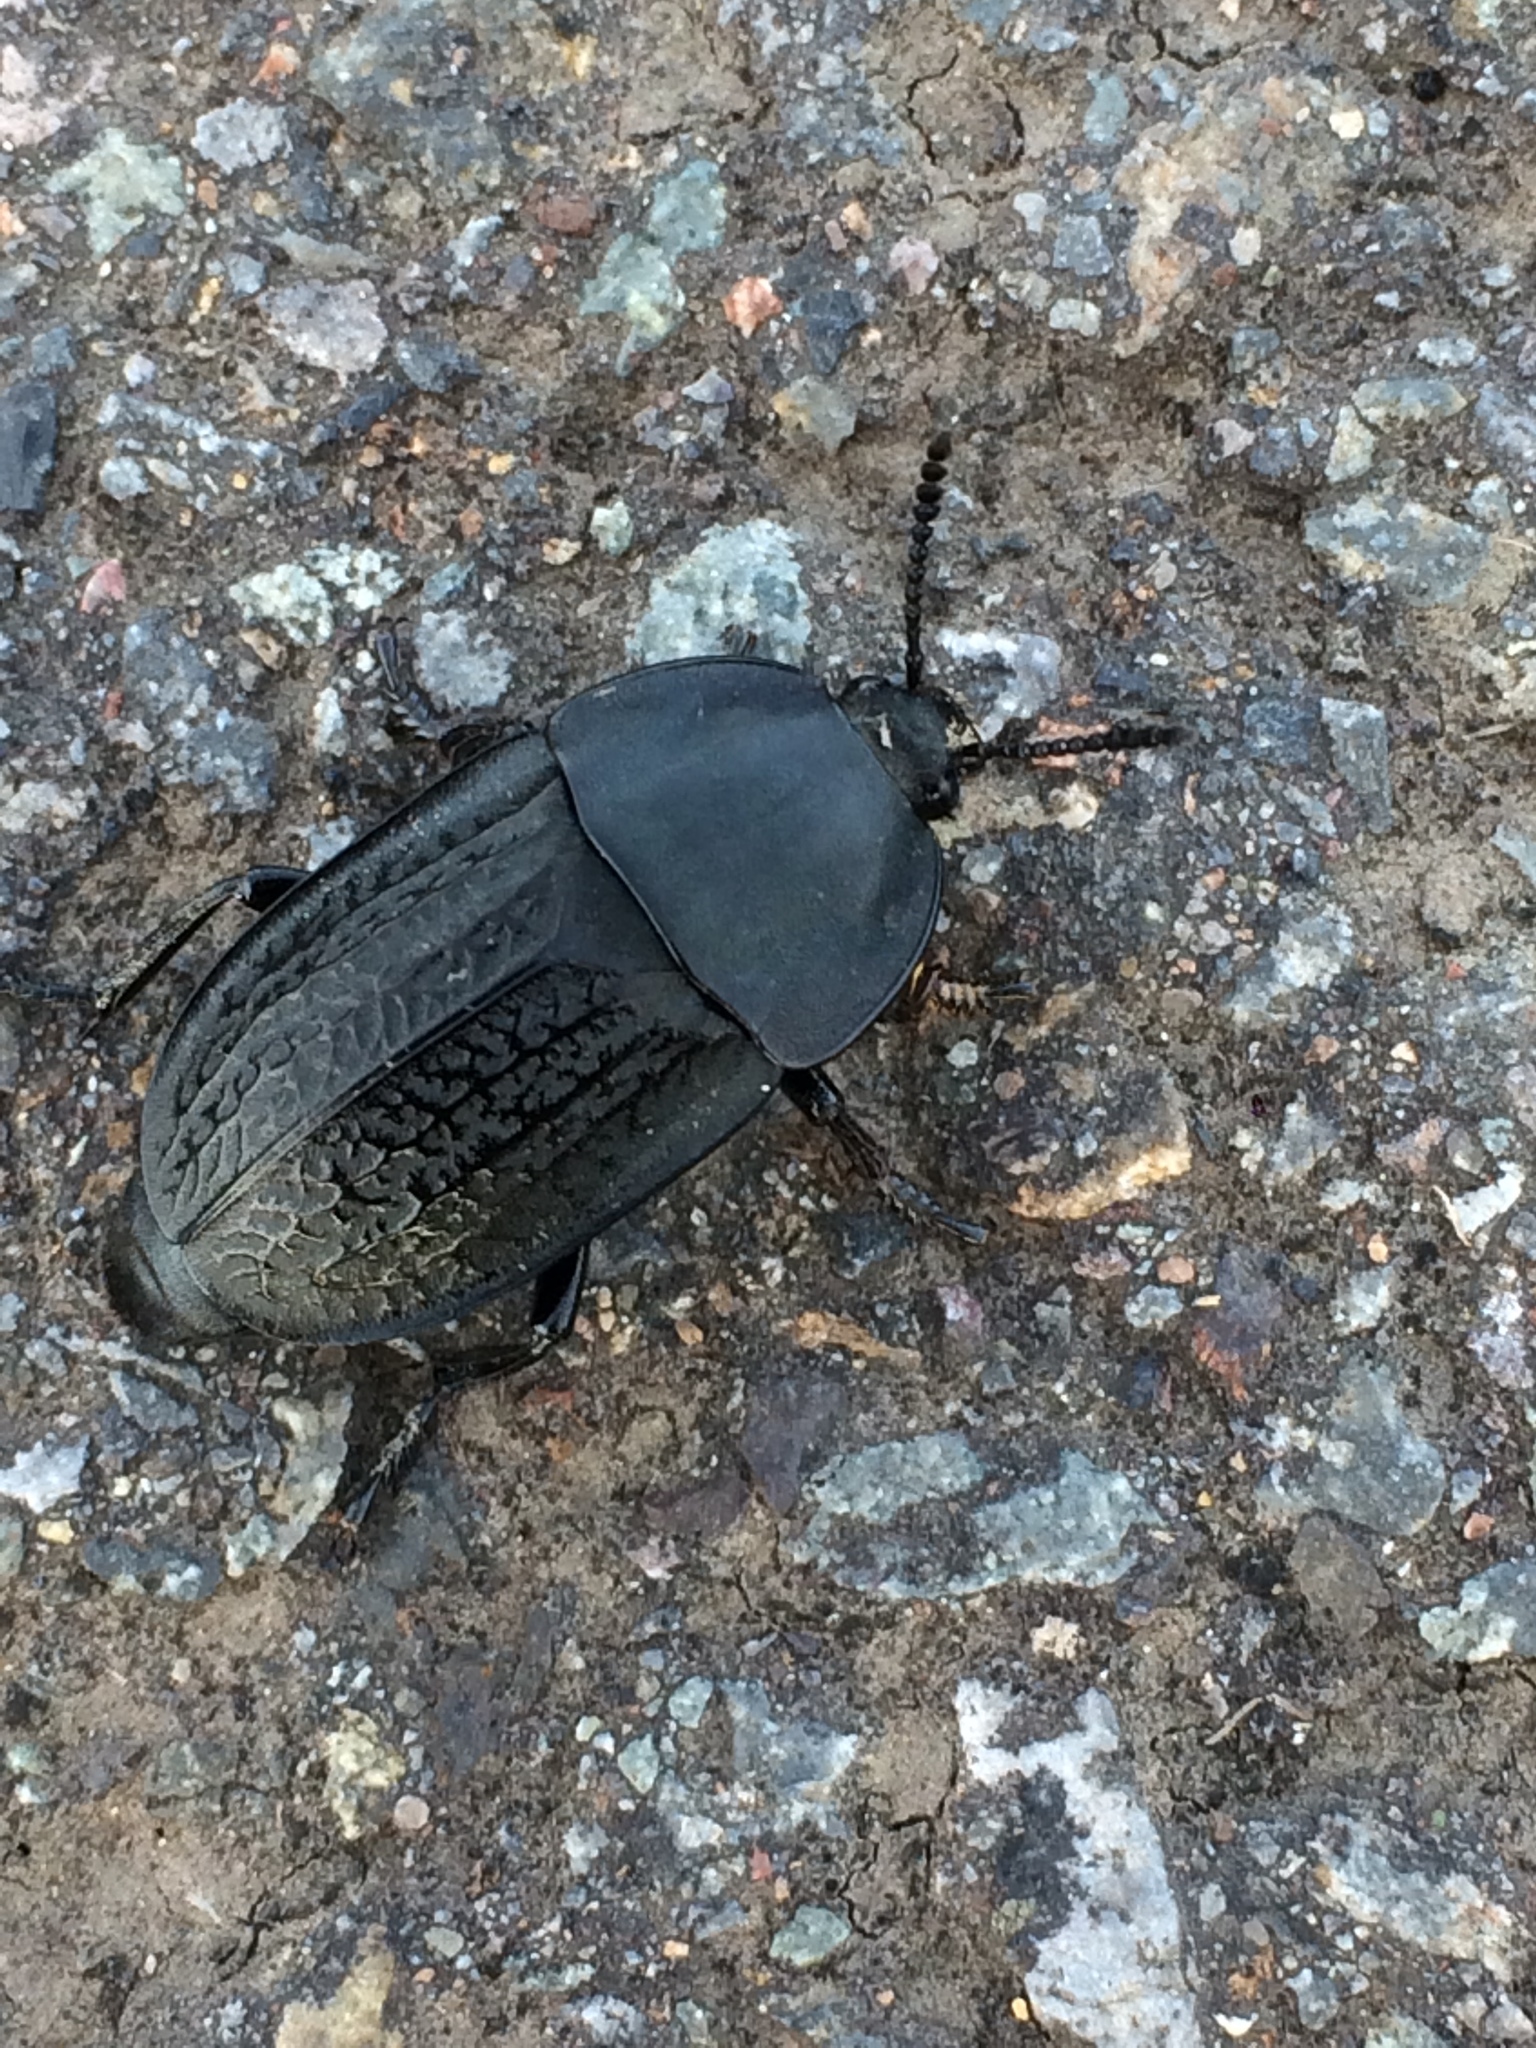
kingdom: Animalia
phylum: Arthropoda
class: Insecta
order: Coleoptera
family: Staphylinidae
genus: Heterosilpha
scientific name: Heterosilpha ramosa
